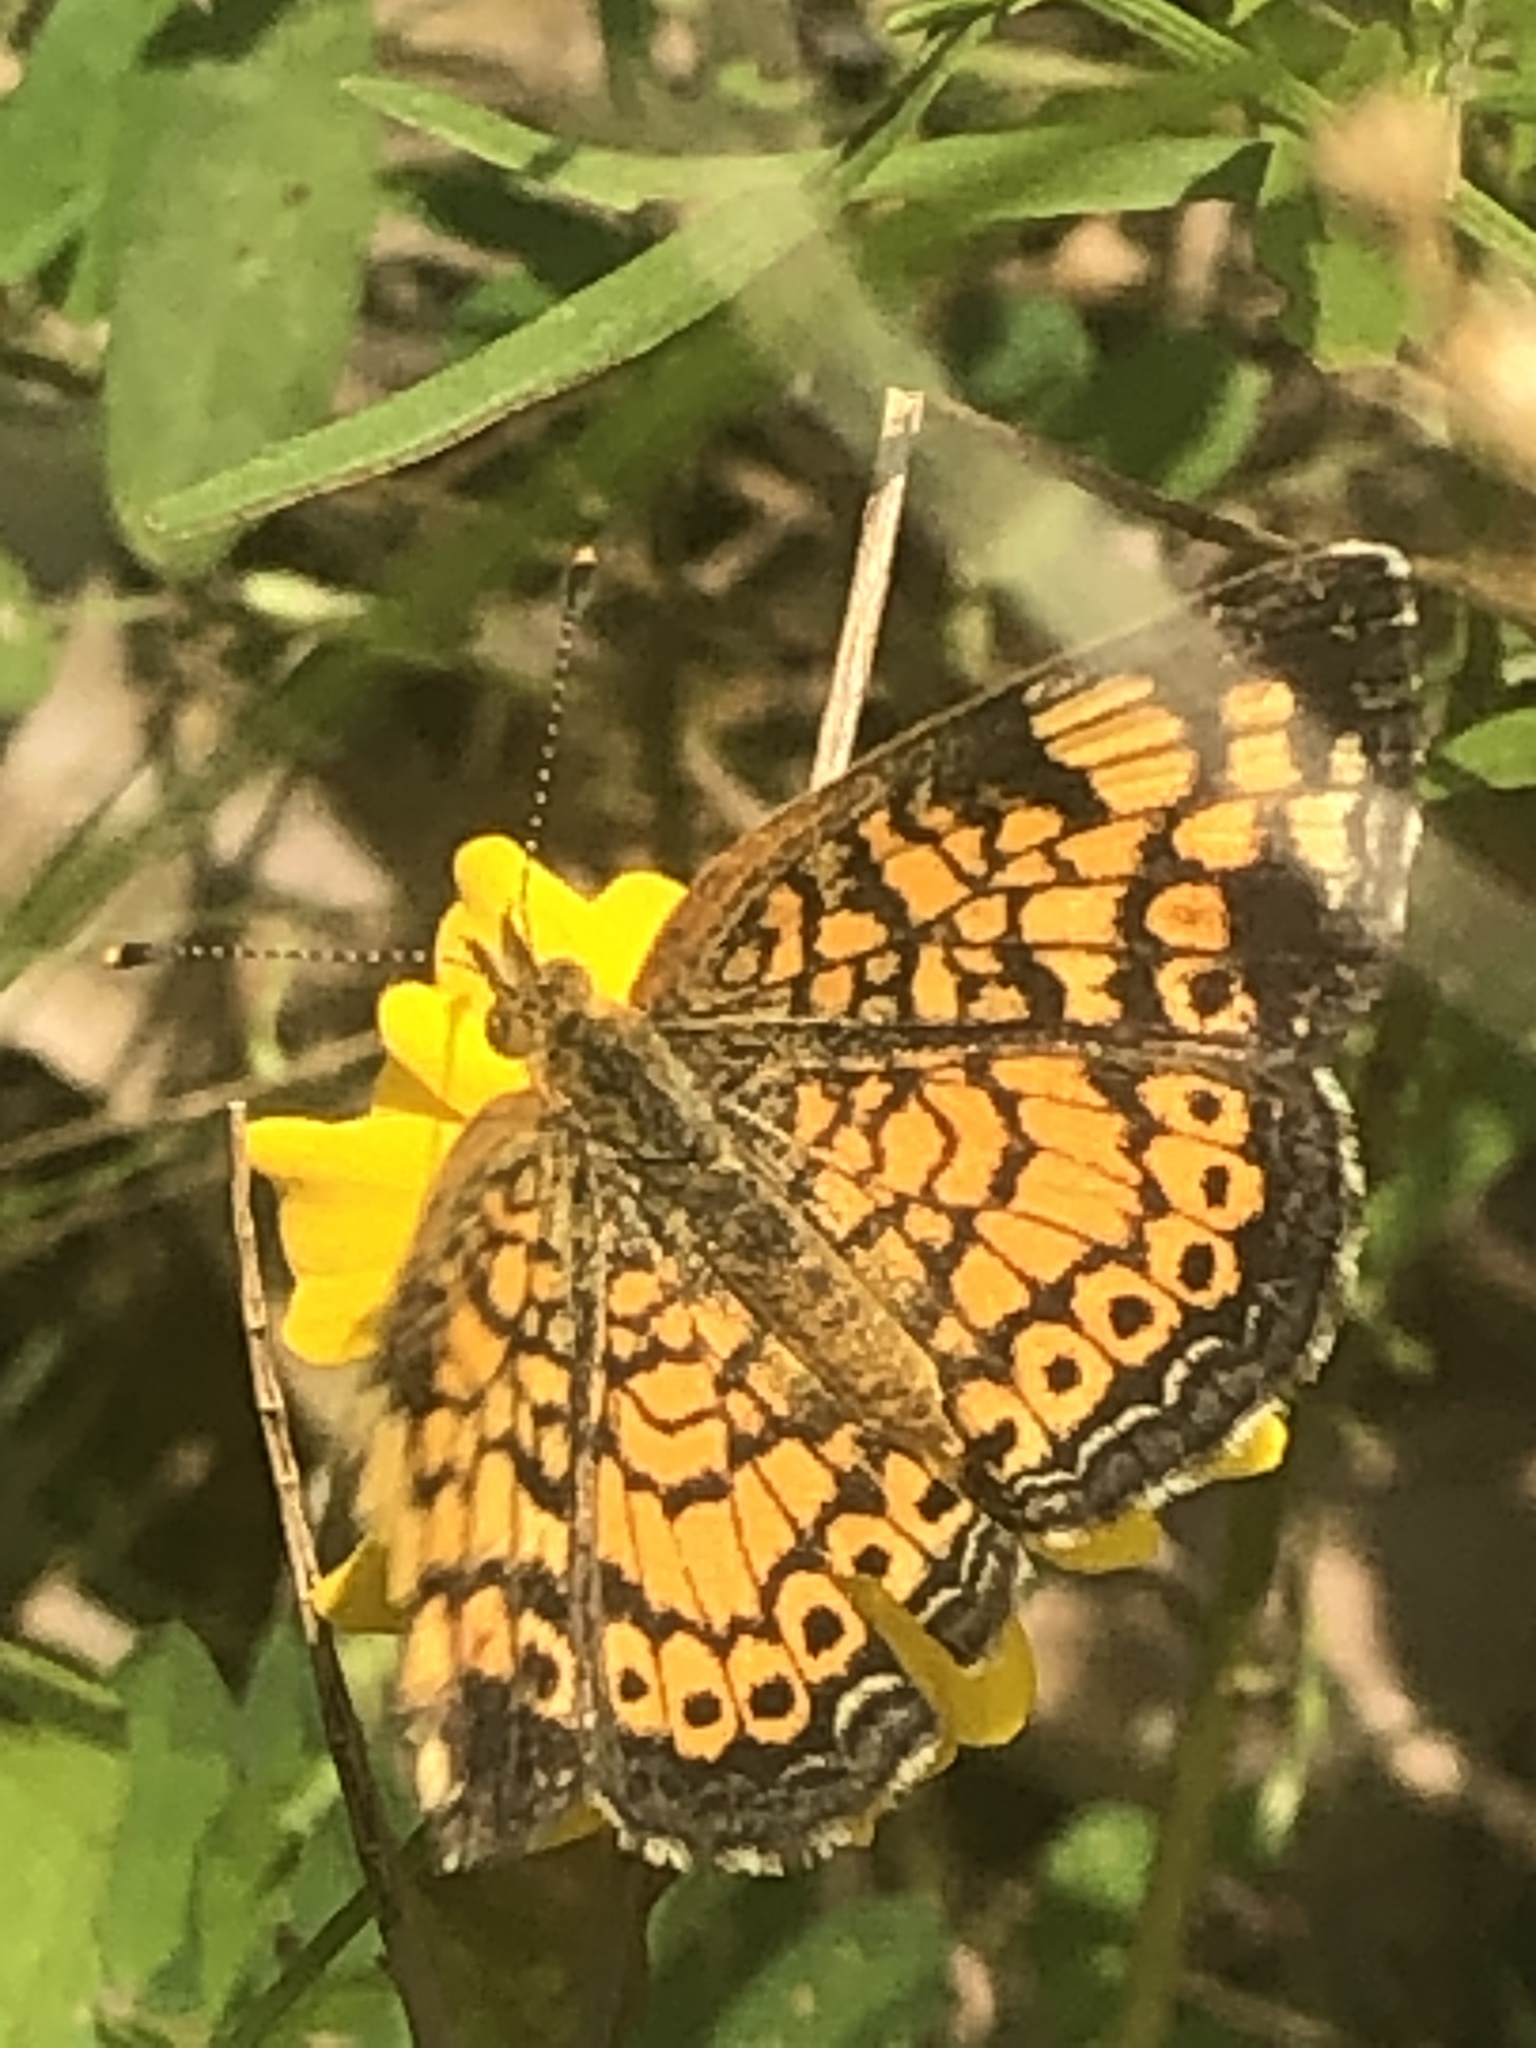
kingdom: Animalia
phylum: Arthropoda
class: Insecta
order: Lepidoptera
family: Nymphalidae
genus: Phyciodes
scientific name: Phyciodes tharos
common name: Pearl crescent
